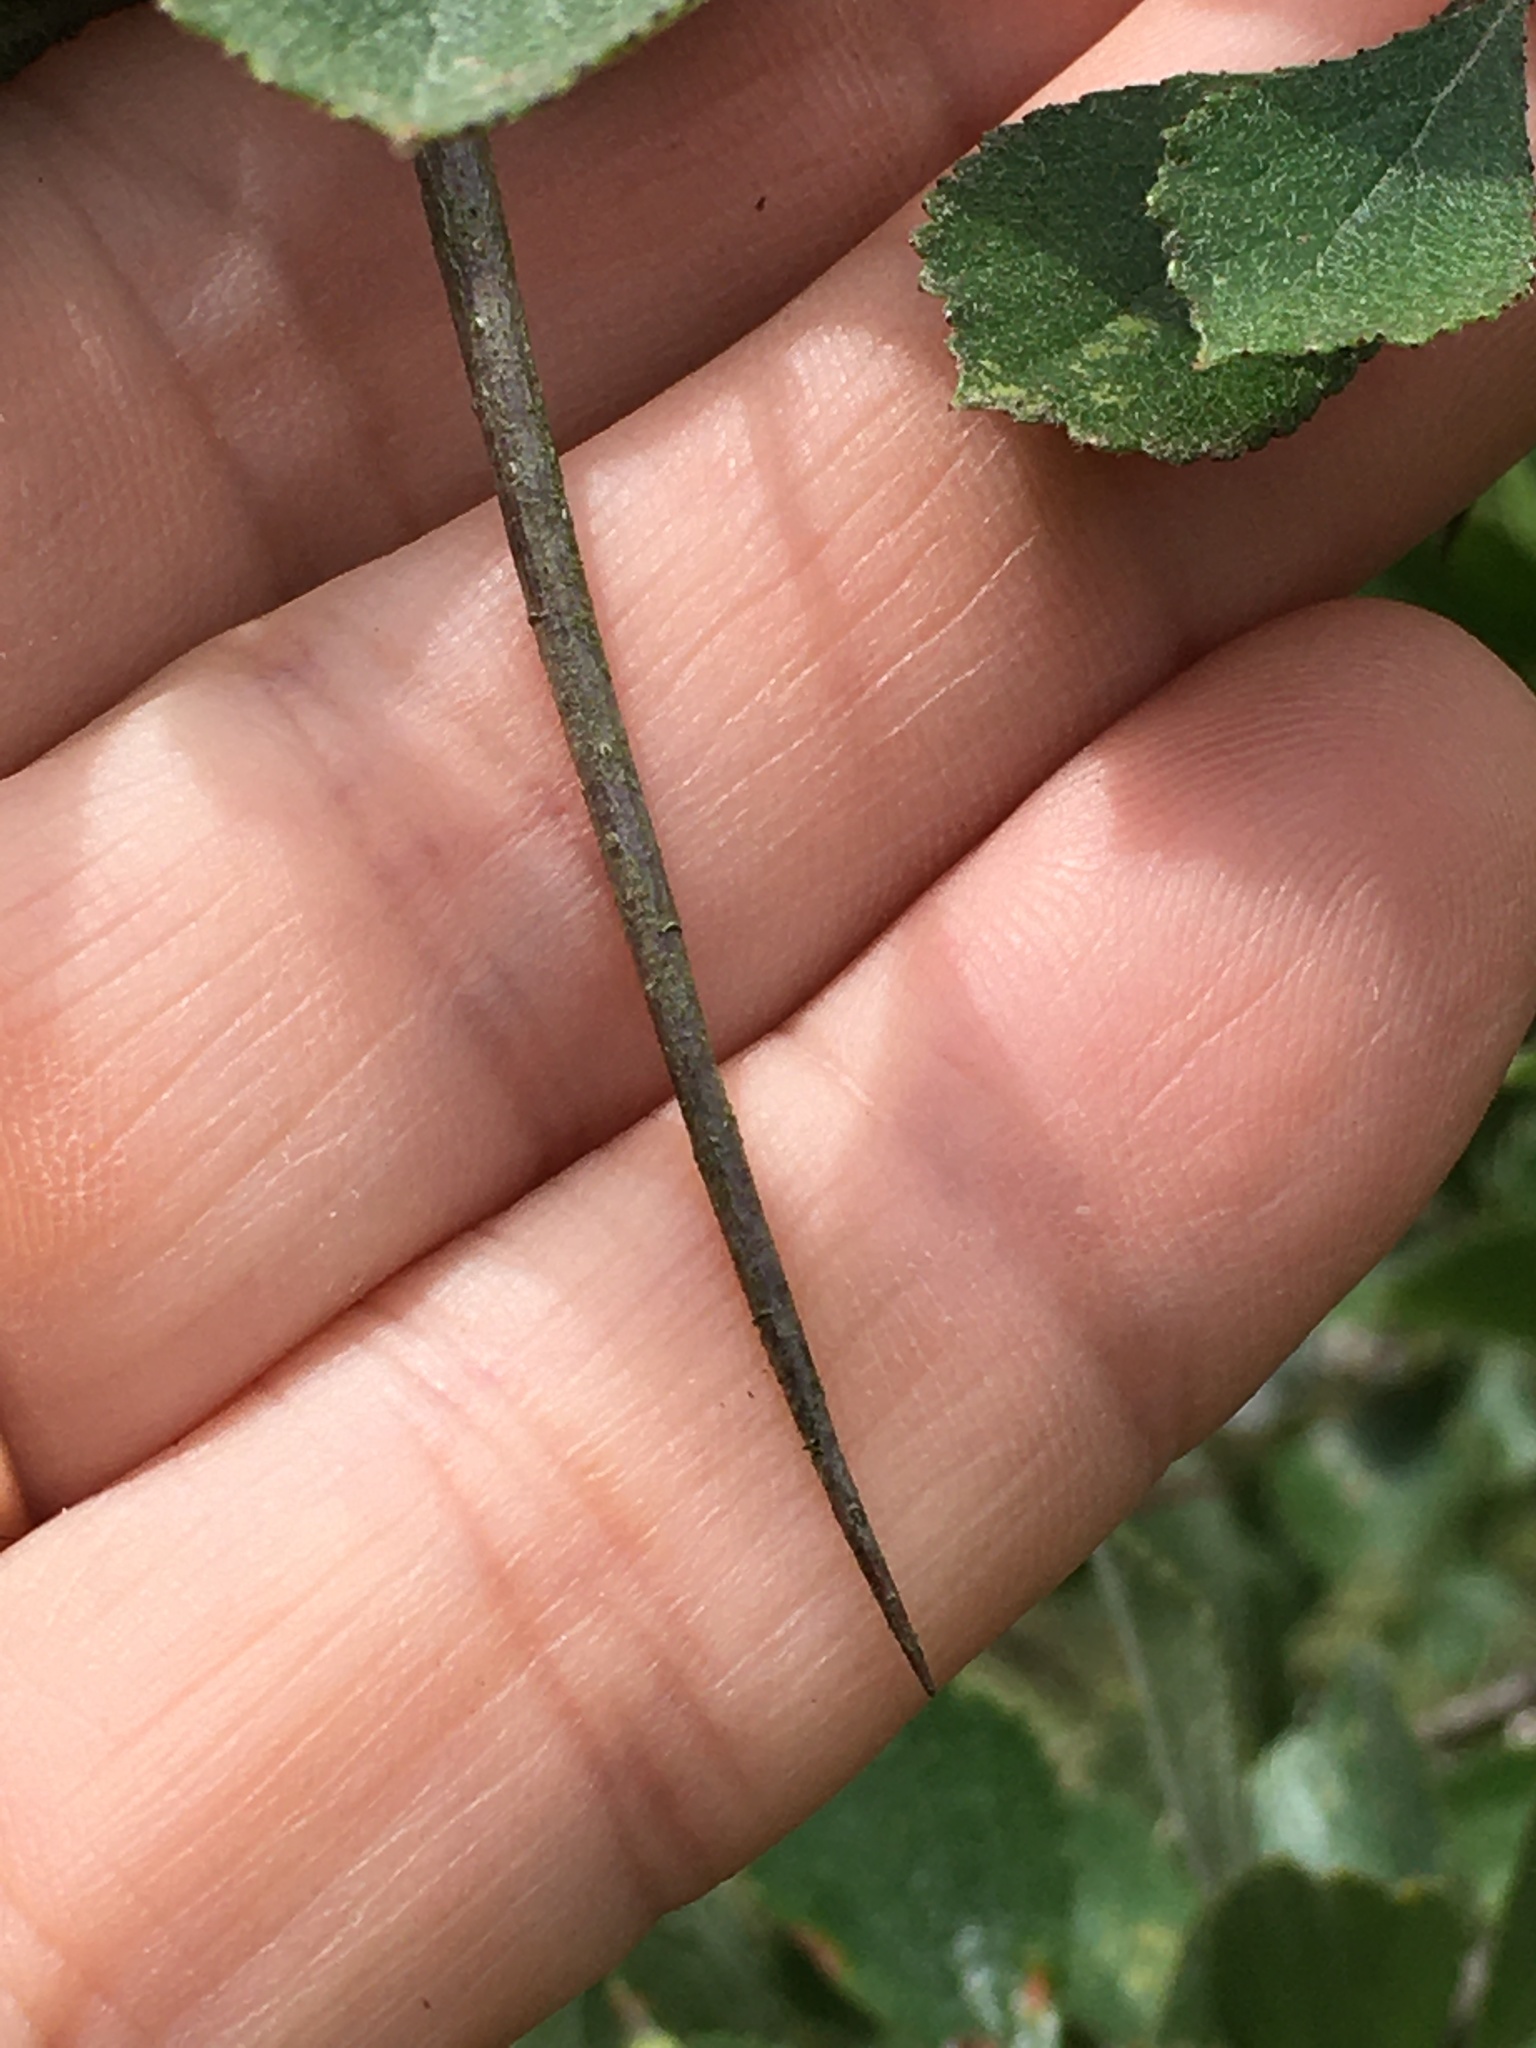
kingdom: Plantae
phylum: Tracheophyta
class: Magnoliopsida
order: Rosales
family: Rosaceae
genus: Crataegus
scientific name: Crataegus uniflora
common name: One-flower hawthorn
